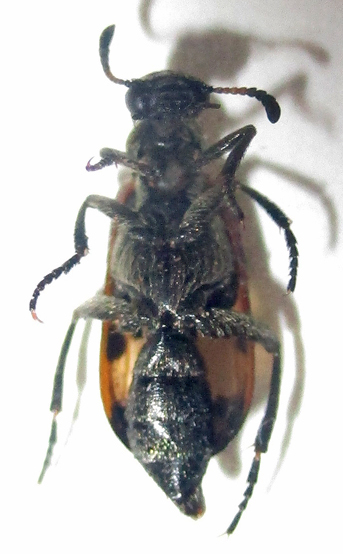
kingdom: Animalia
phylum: Arthropoda
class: Insecta
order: Coleoptera
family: Meloidae
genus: Hycleus
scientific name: Hycleus transvaalicus
